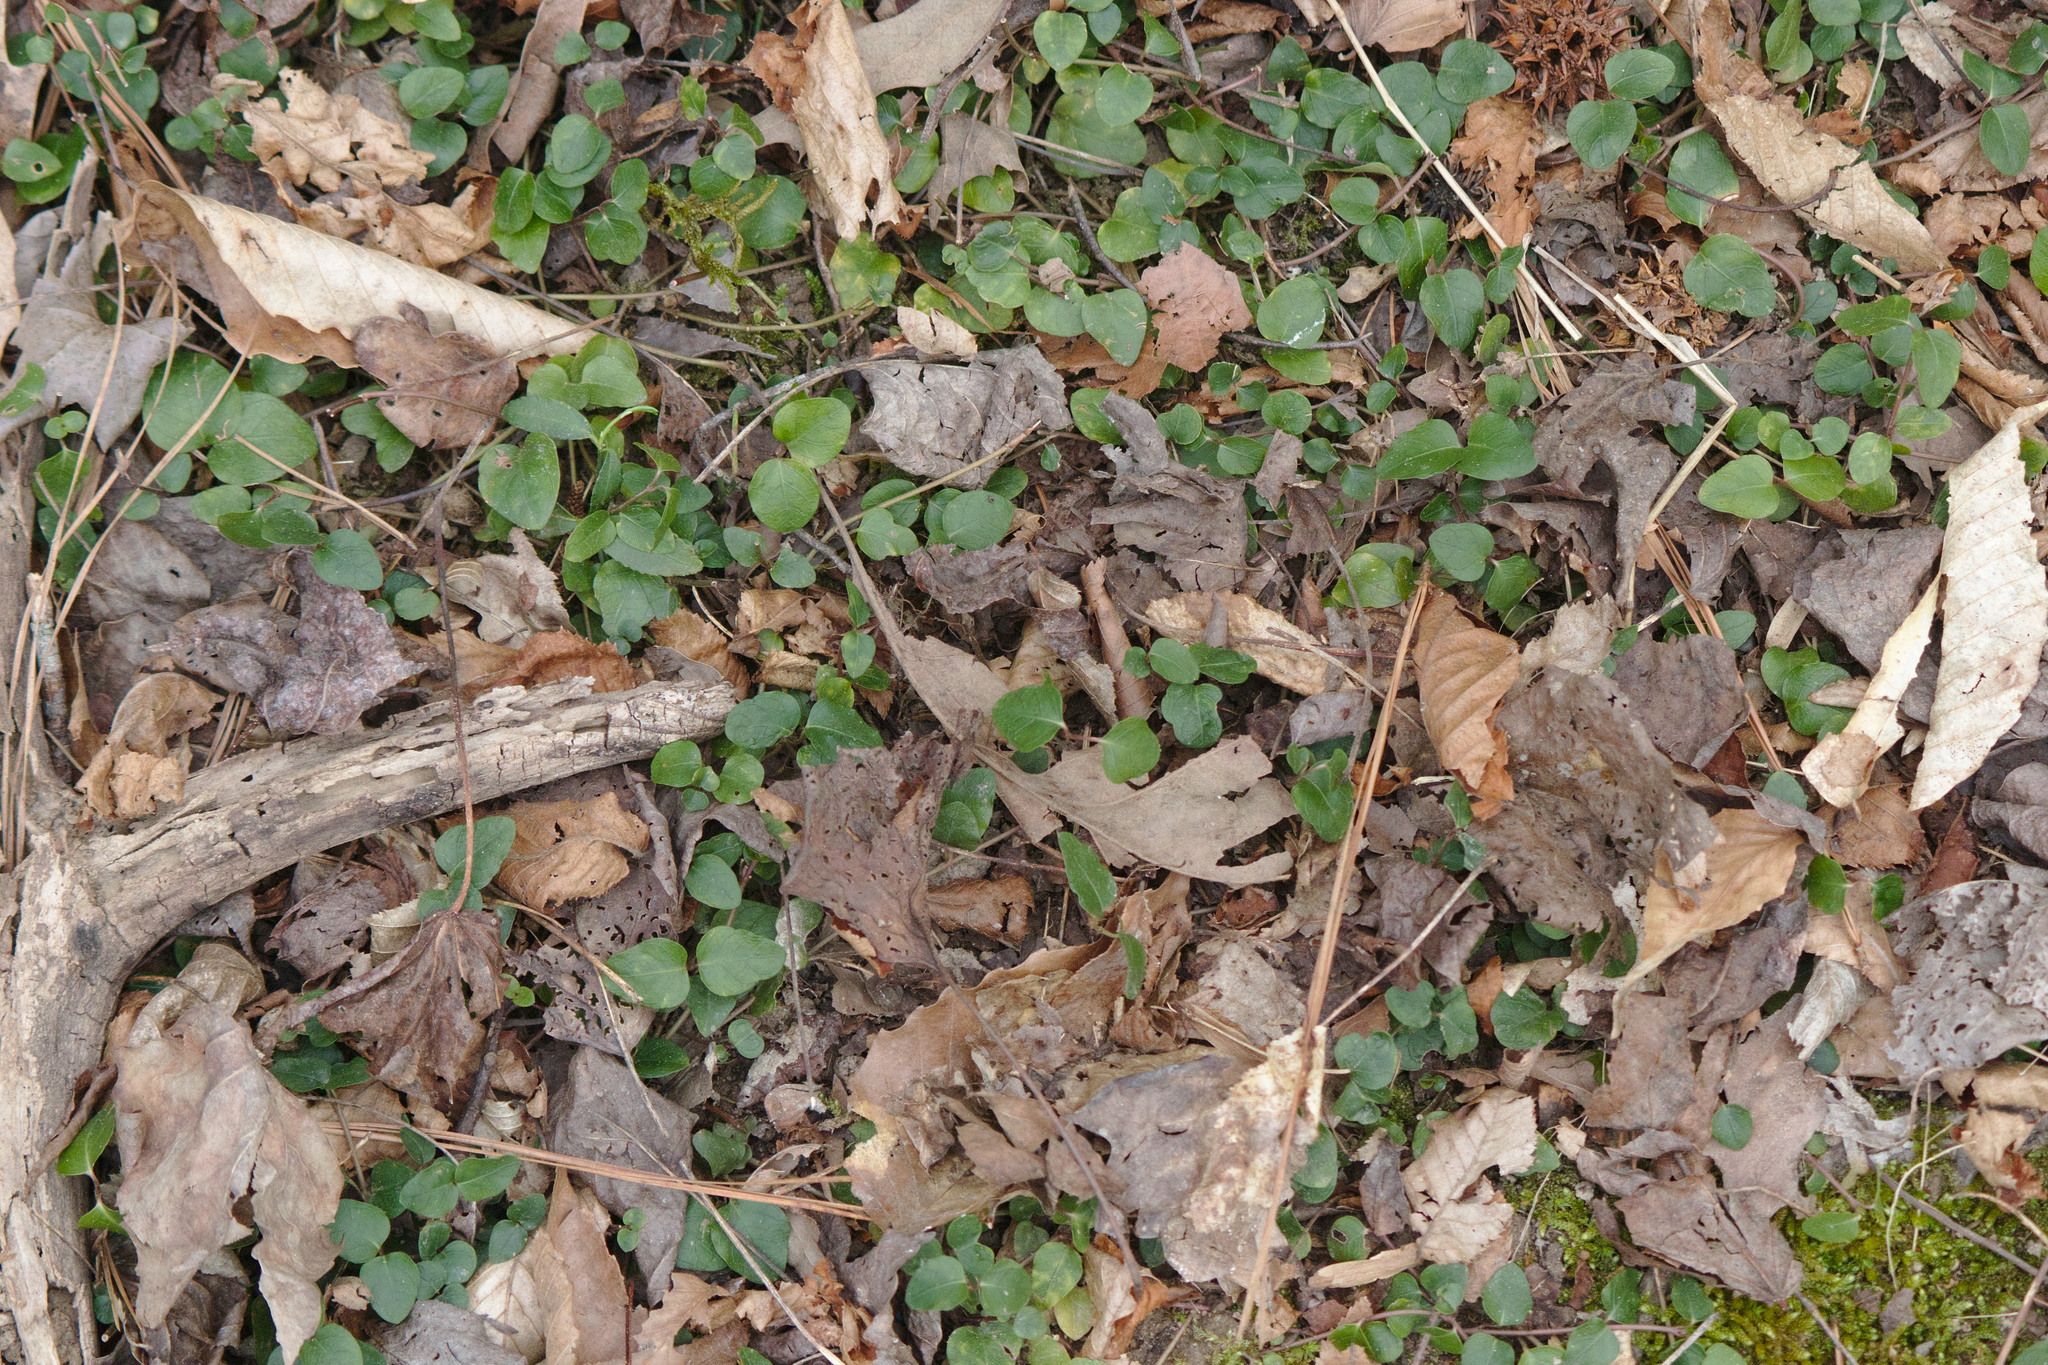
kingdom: Plantae
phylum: Tracheophyta
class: Magnoliopsida
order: Gentianales
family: Rubiaceae
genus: Mitchella
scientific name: Mitchella repens
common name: Partridge-berry
